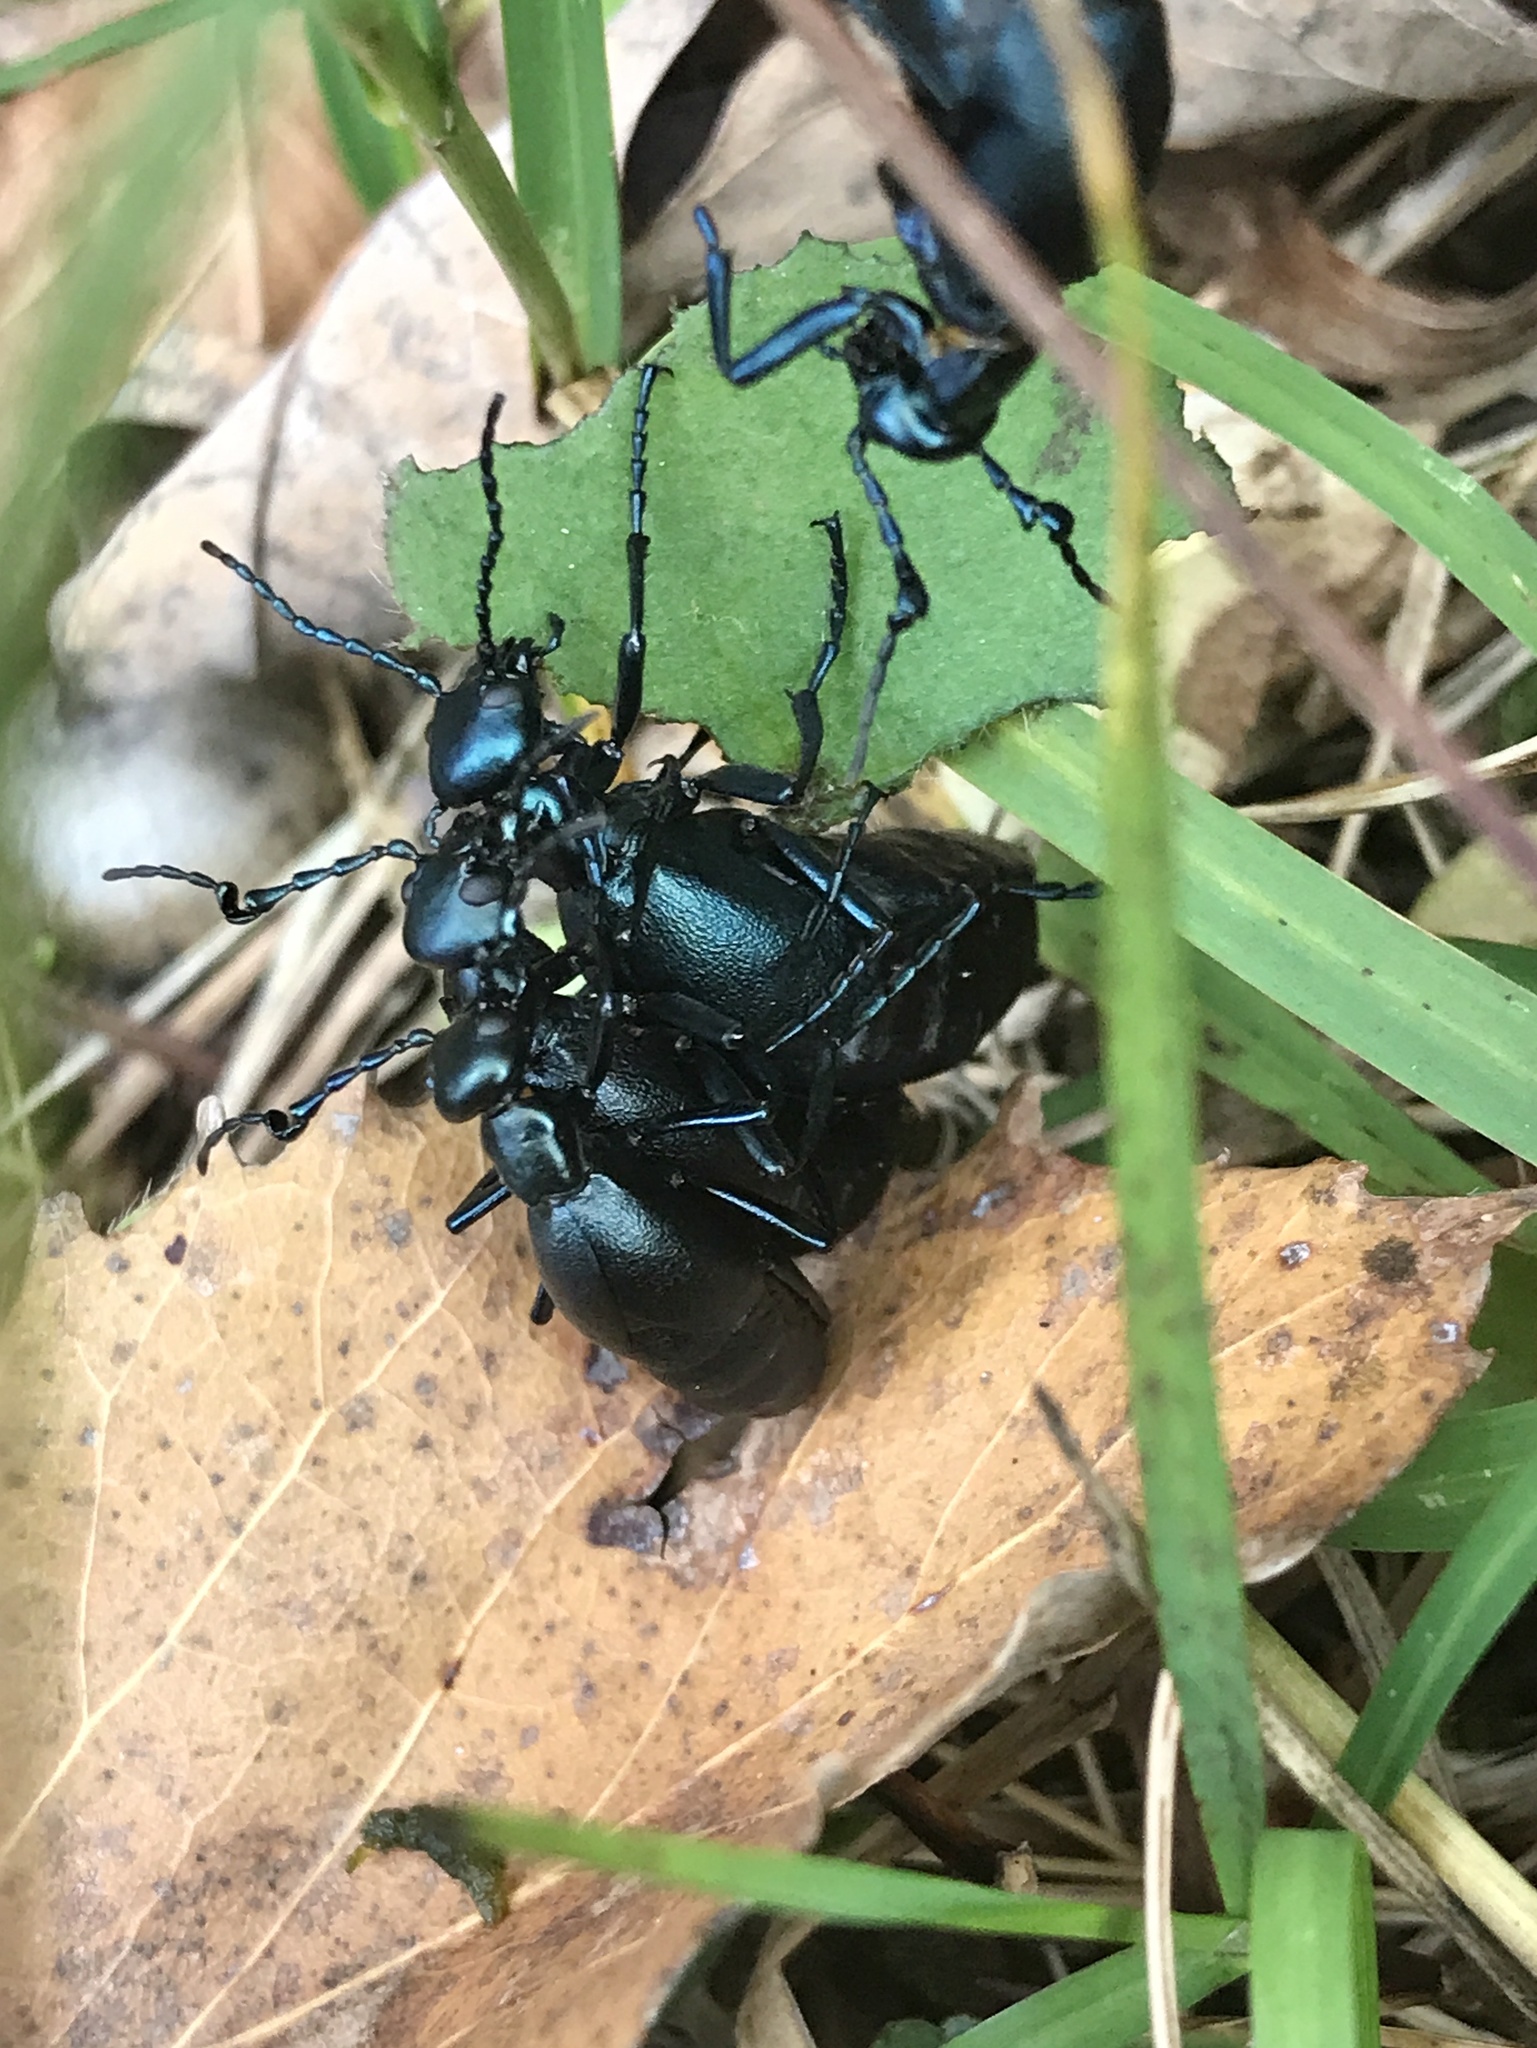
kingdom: Animalia
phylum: Arthropoda
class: Insecta
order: Coleoptera
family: Meloidae
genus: Meloe
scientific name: Meloe impressus
